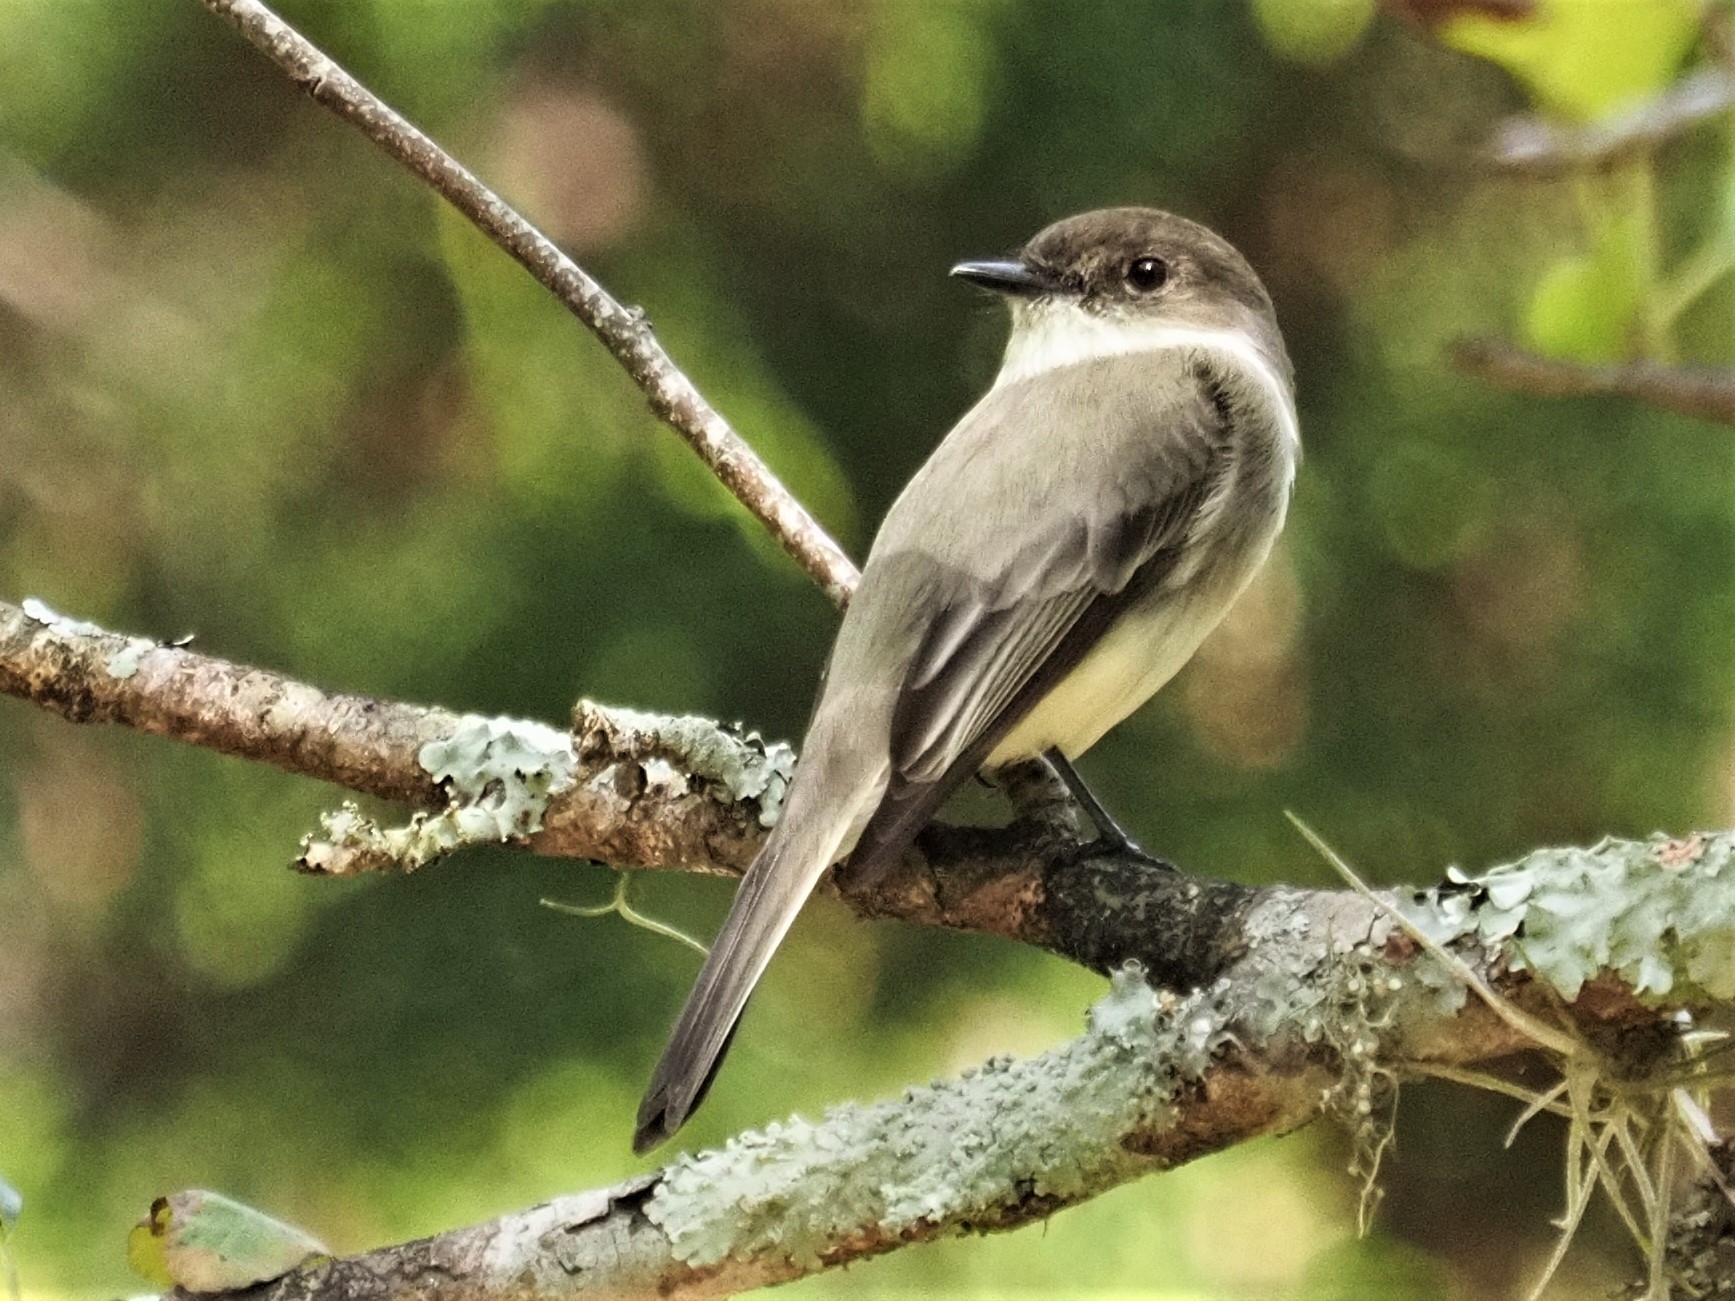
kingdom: Animalia
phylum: Chordata
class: Aves
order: Passeriformes
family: Tyrannidae
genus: Sayornis
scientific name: Sayornis phoebe
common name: Eastern phoebe
